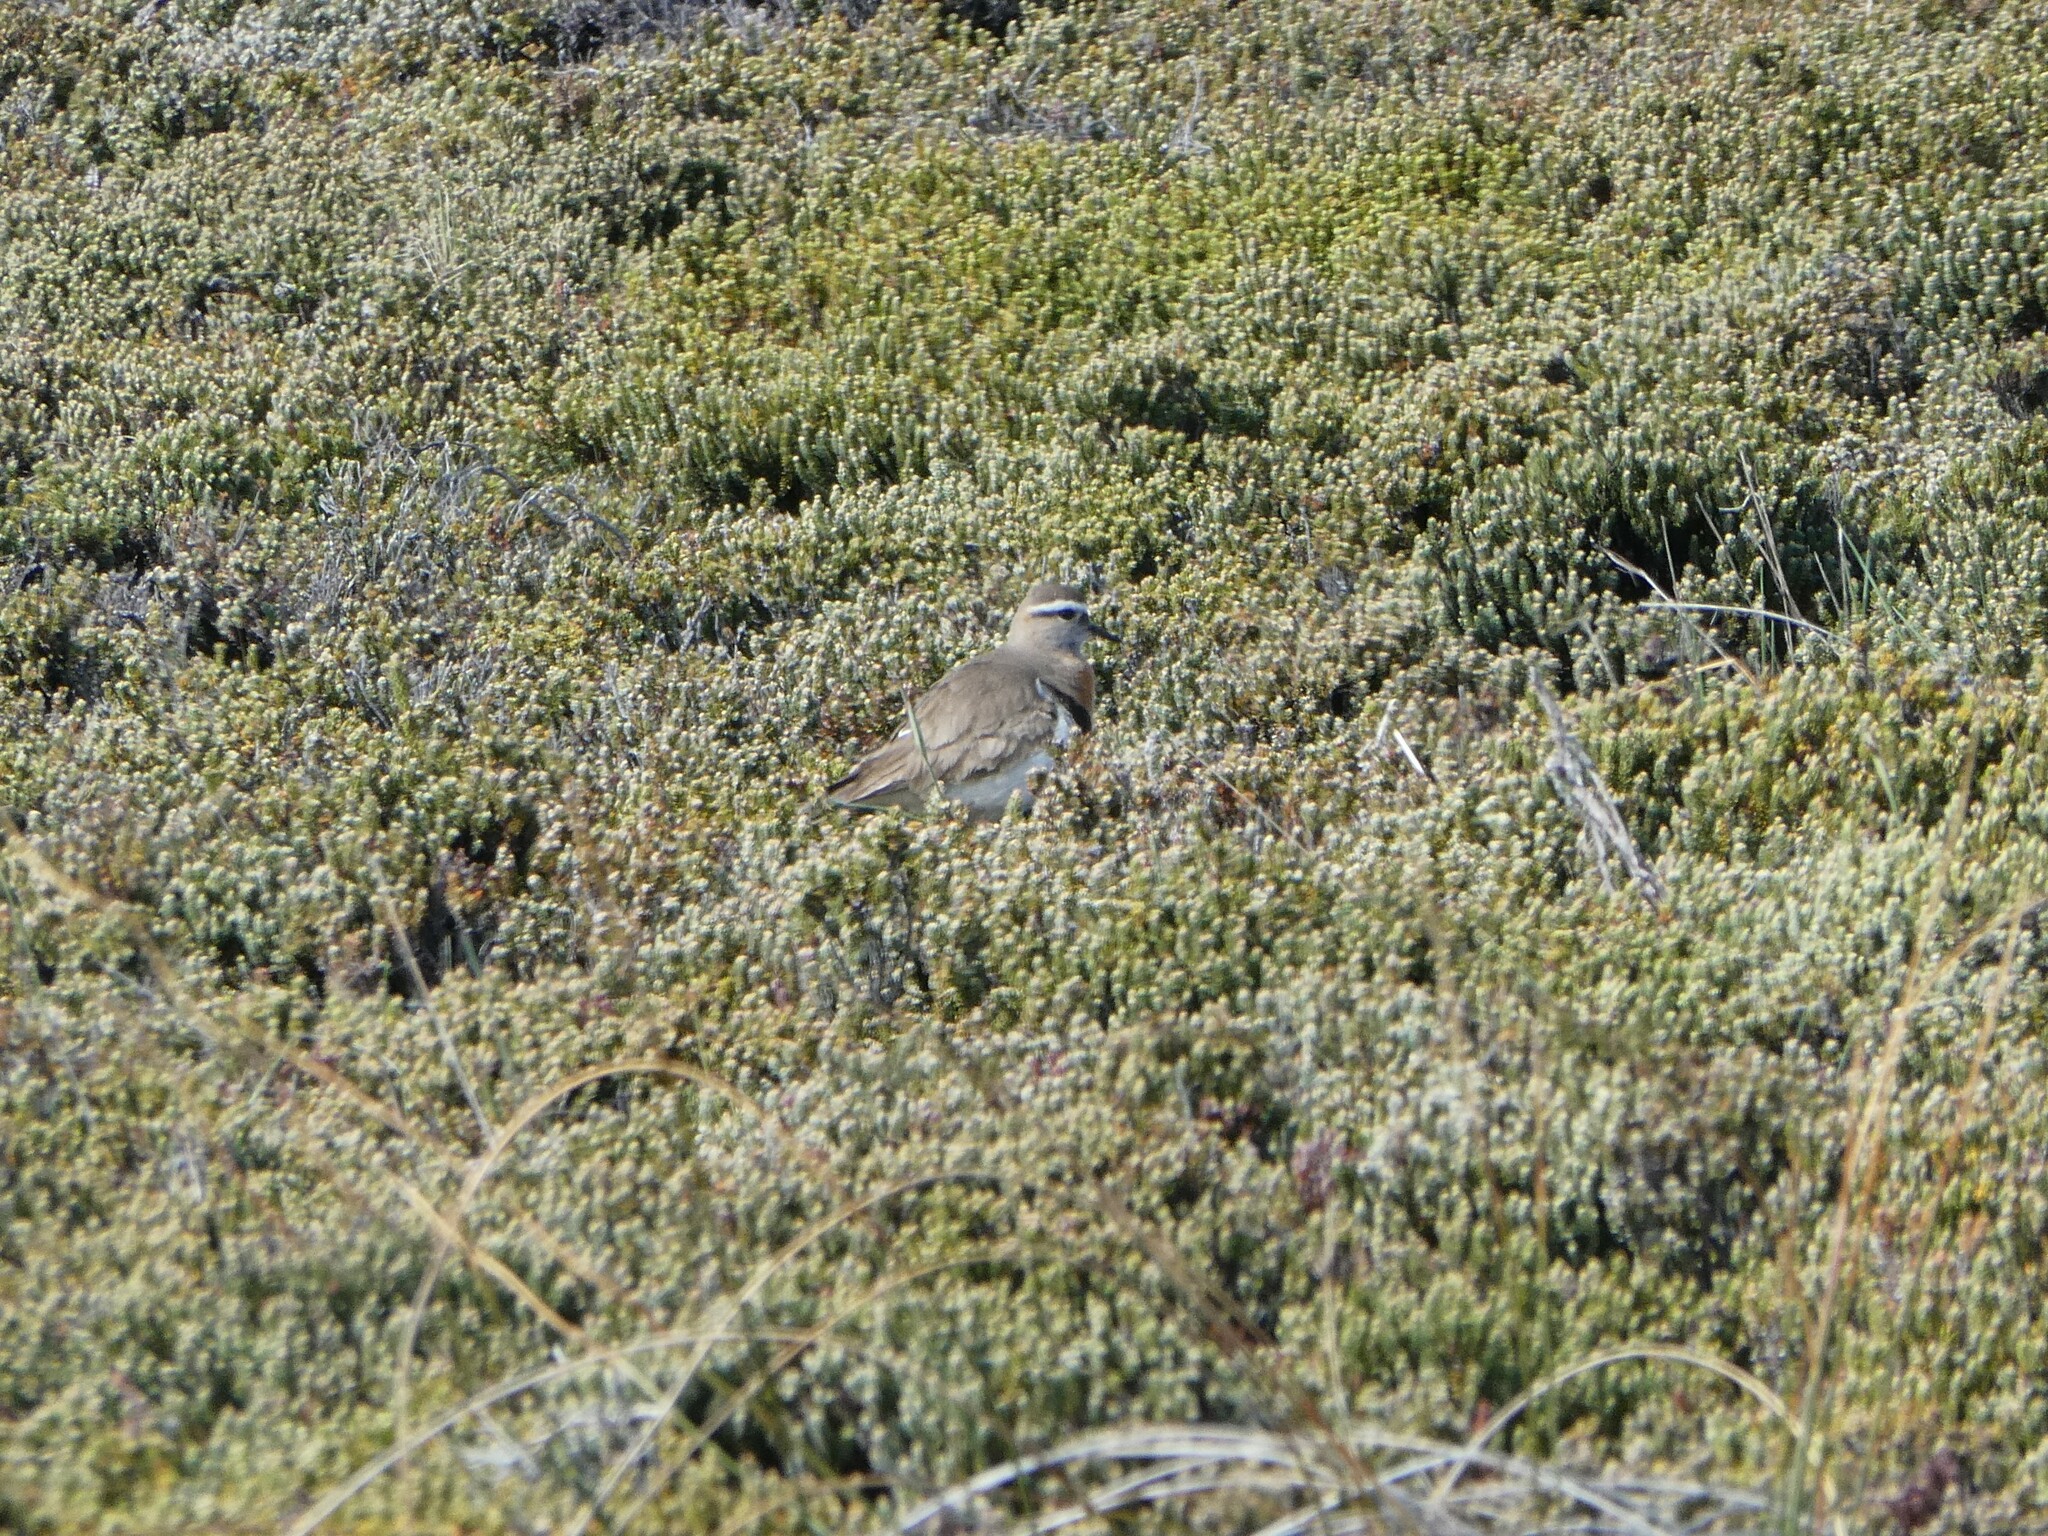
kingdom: Animalia
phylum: Chordata
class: Aves
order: Charadriiformes
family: Charadriidae
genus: Charadrius
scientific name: Charadrius modestus
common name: Rufous-chested plover
